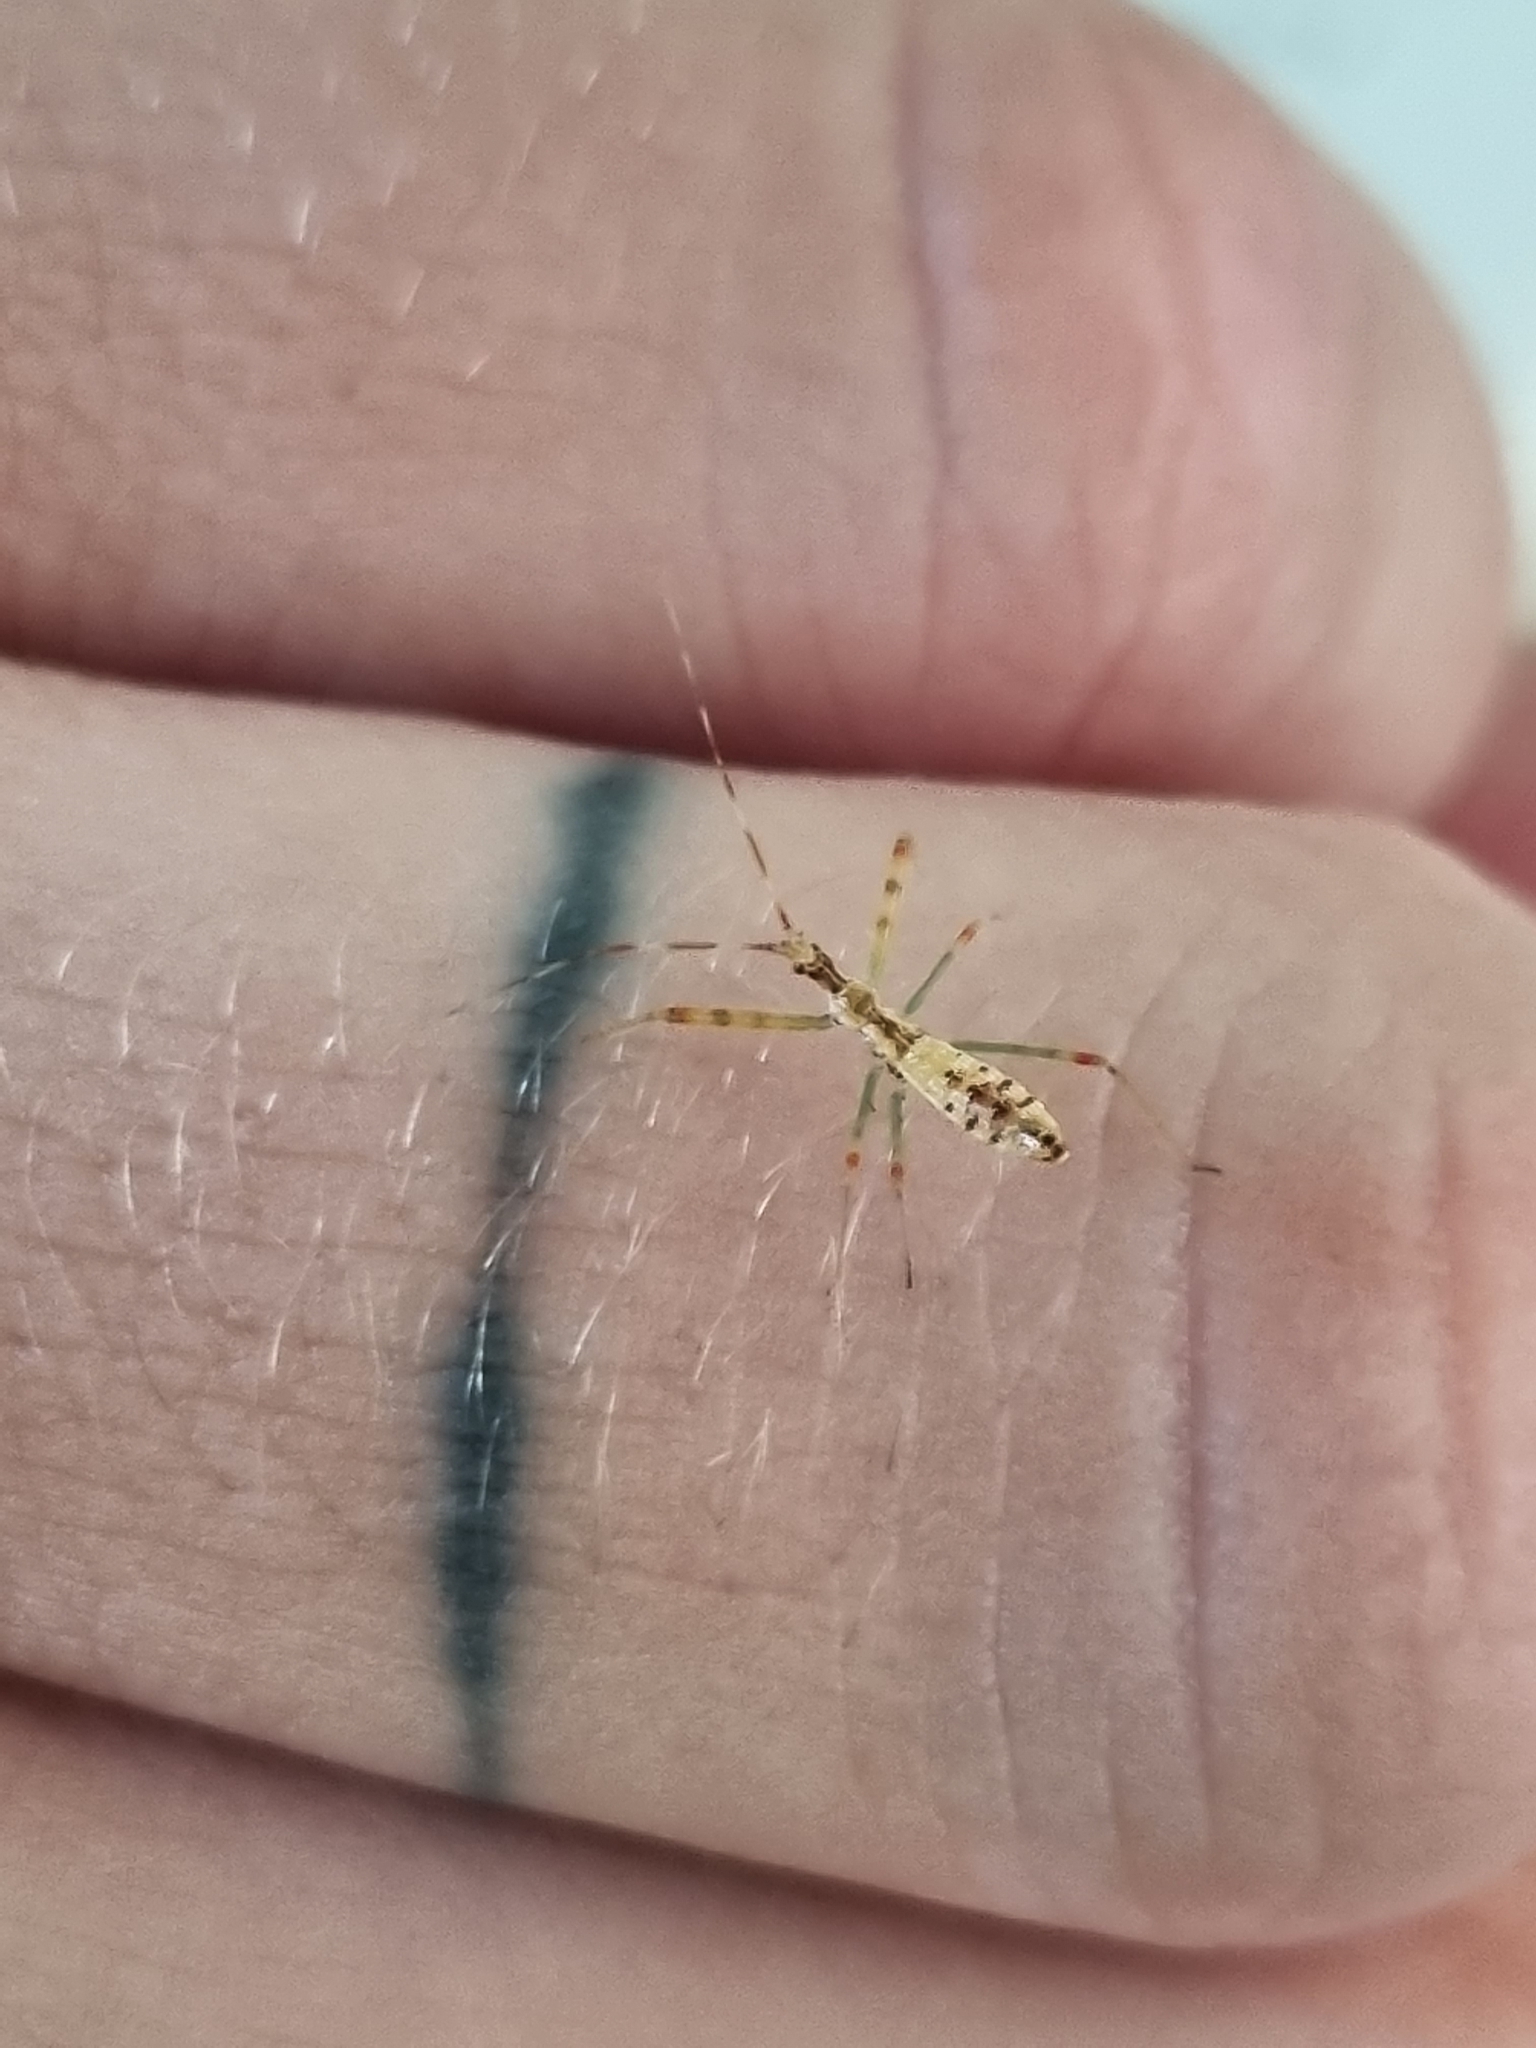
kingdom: Animalia
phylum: Arthropoda
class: Insecta
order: Hemiptera
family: Reduviidae
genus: Nagusta
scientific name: Nagusta goedelii
